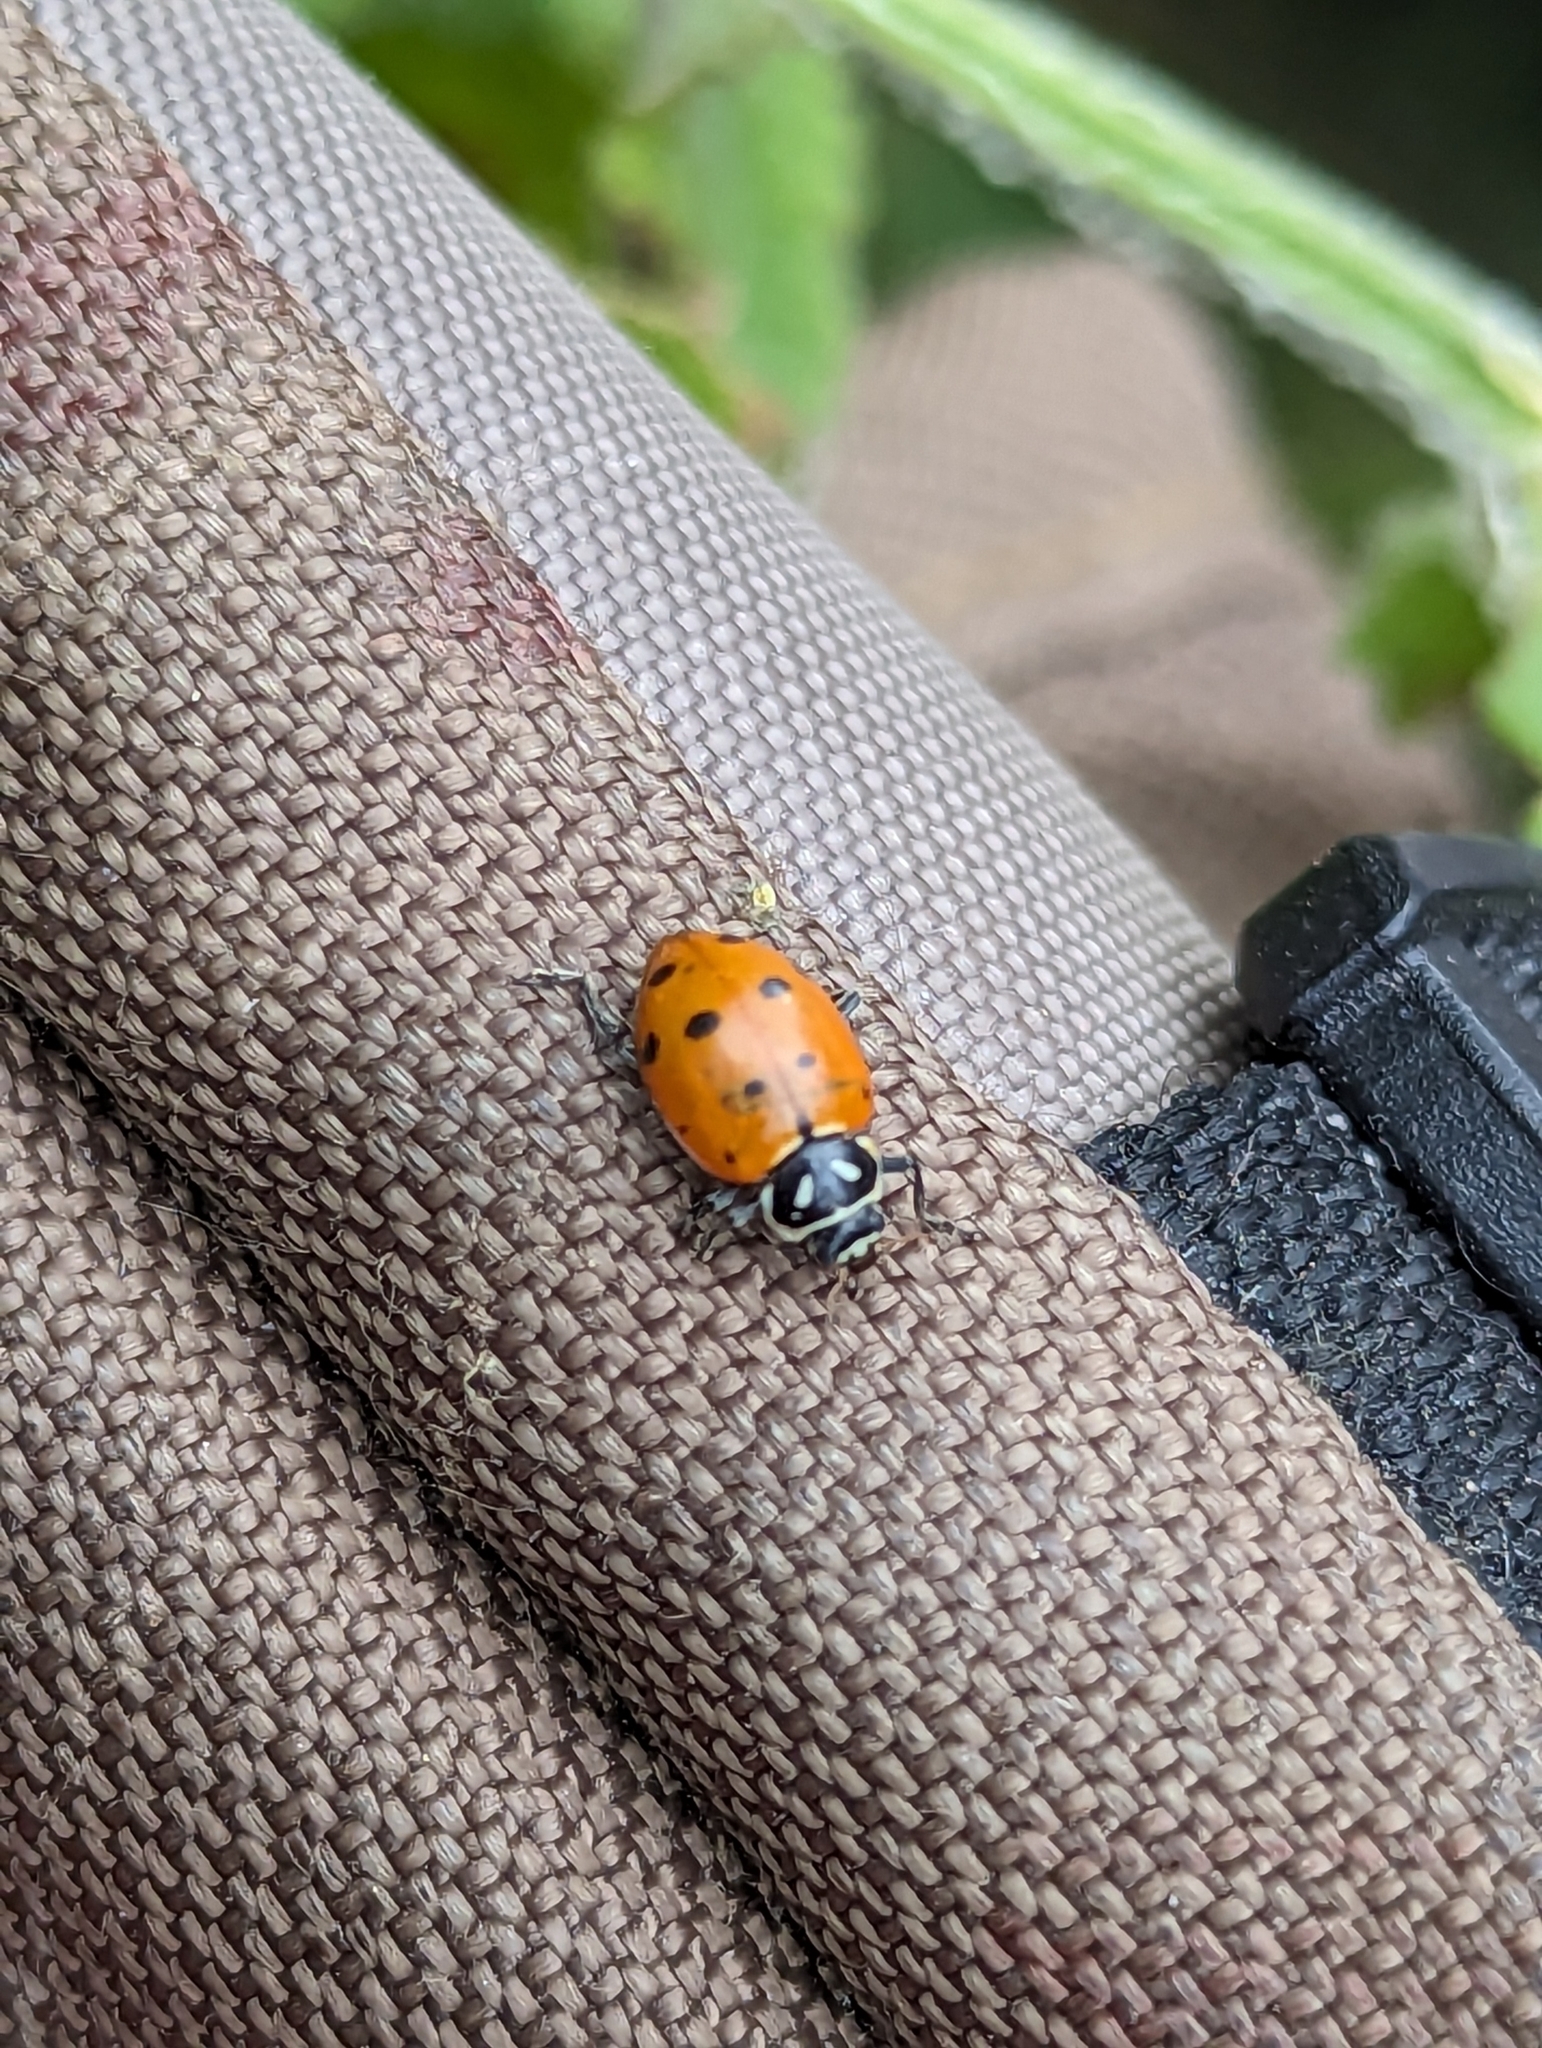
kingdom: Animalia
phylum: Arthropoda
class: Insecta
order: Coleoptera
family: Coccinellidae
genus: Hippodamia
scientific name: Hippodamia convergens
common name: Convergent lady beetle
